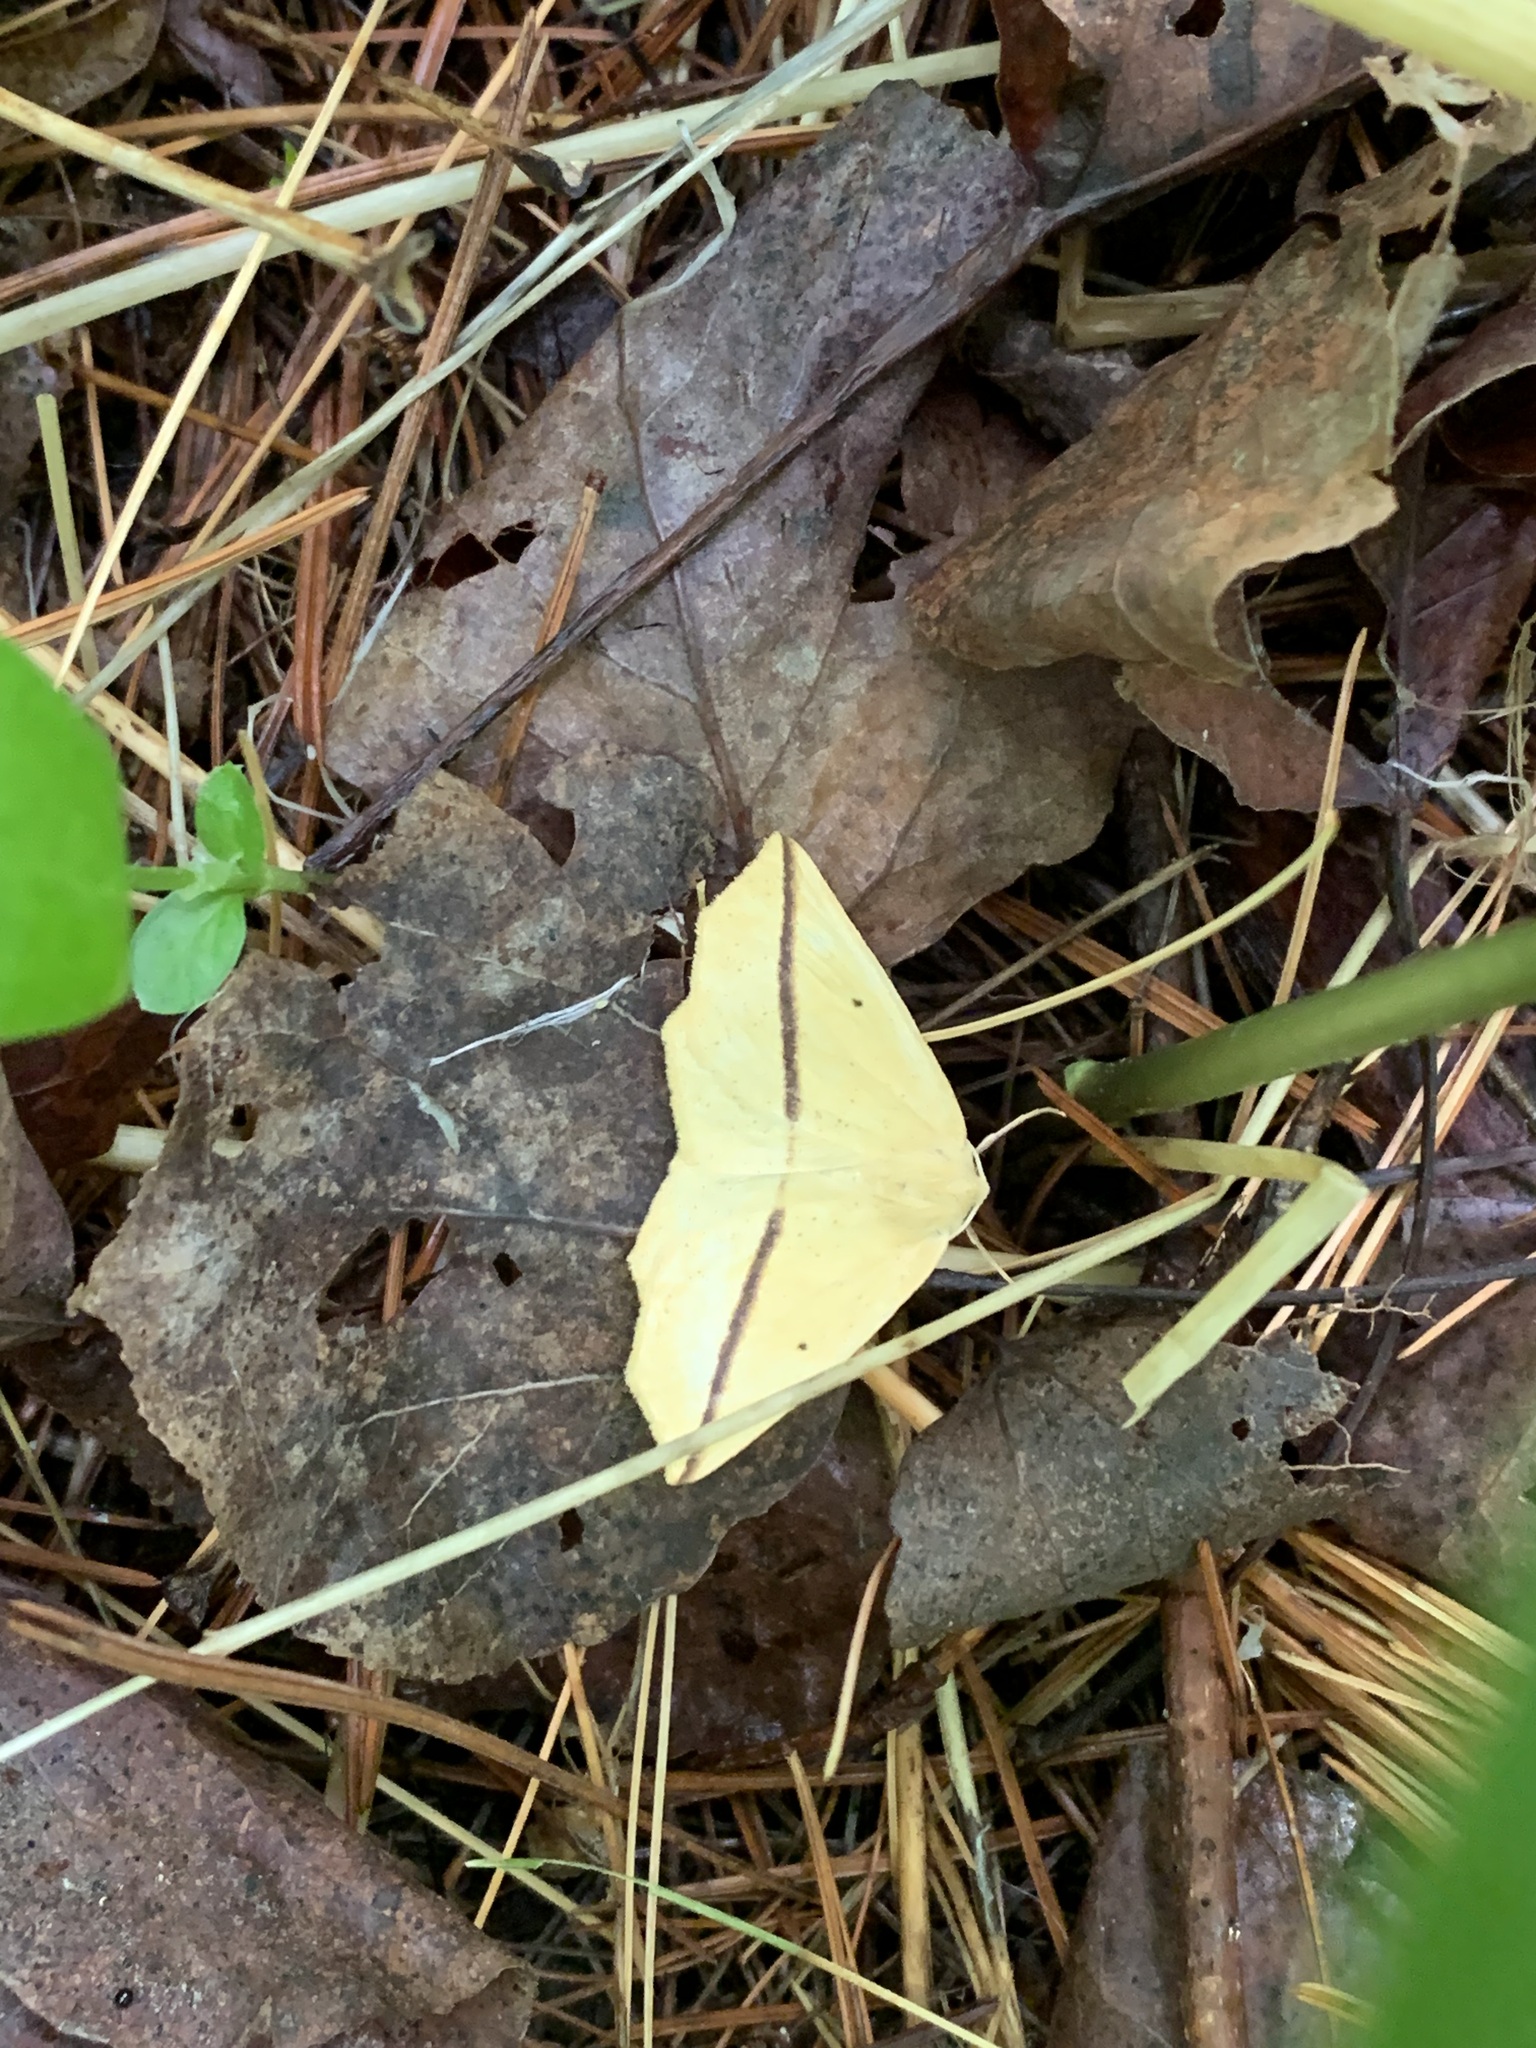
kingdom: Animalia
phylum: Arthropoda
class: Insecta
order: Lepidoptera
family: Geometridae
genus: Tetracis
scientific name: Tetracis crocallata
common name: Yellow slant-line
